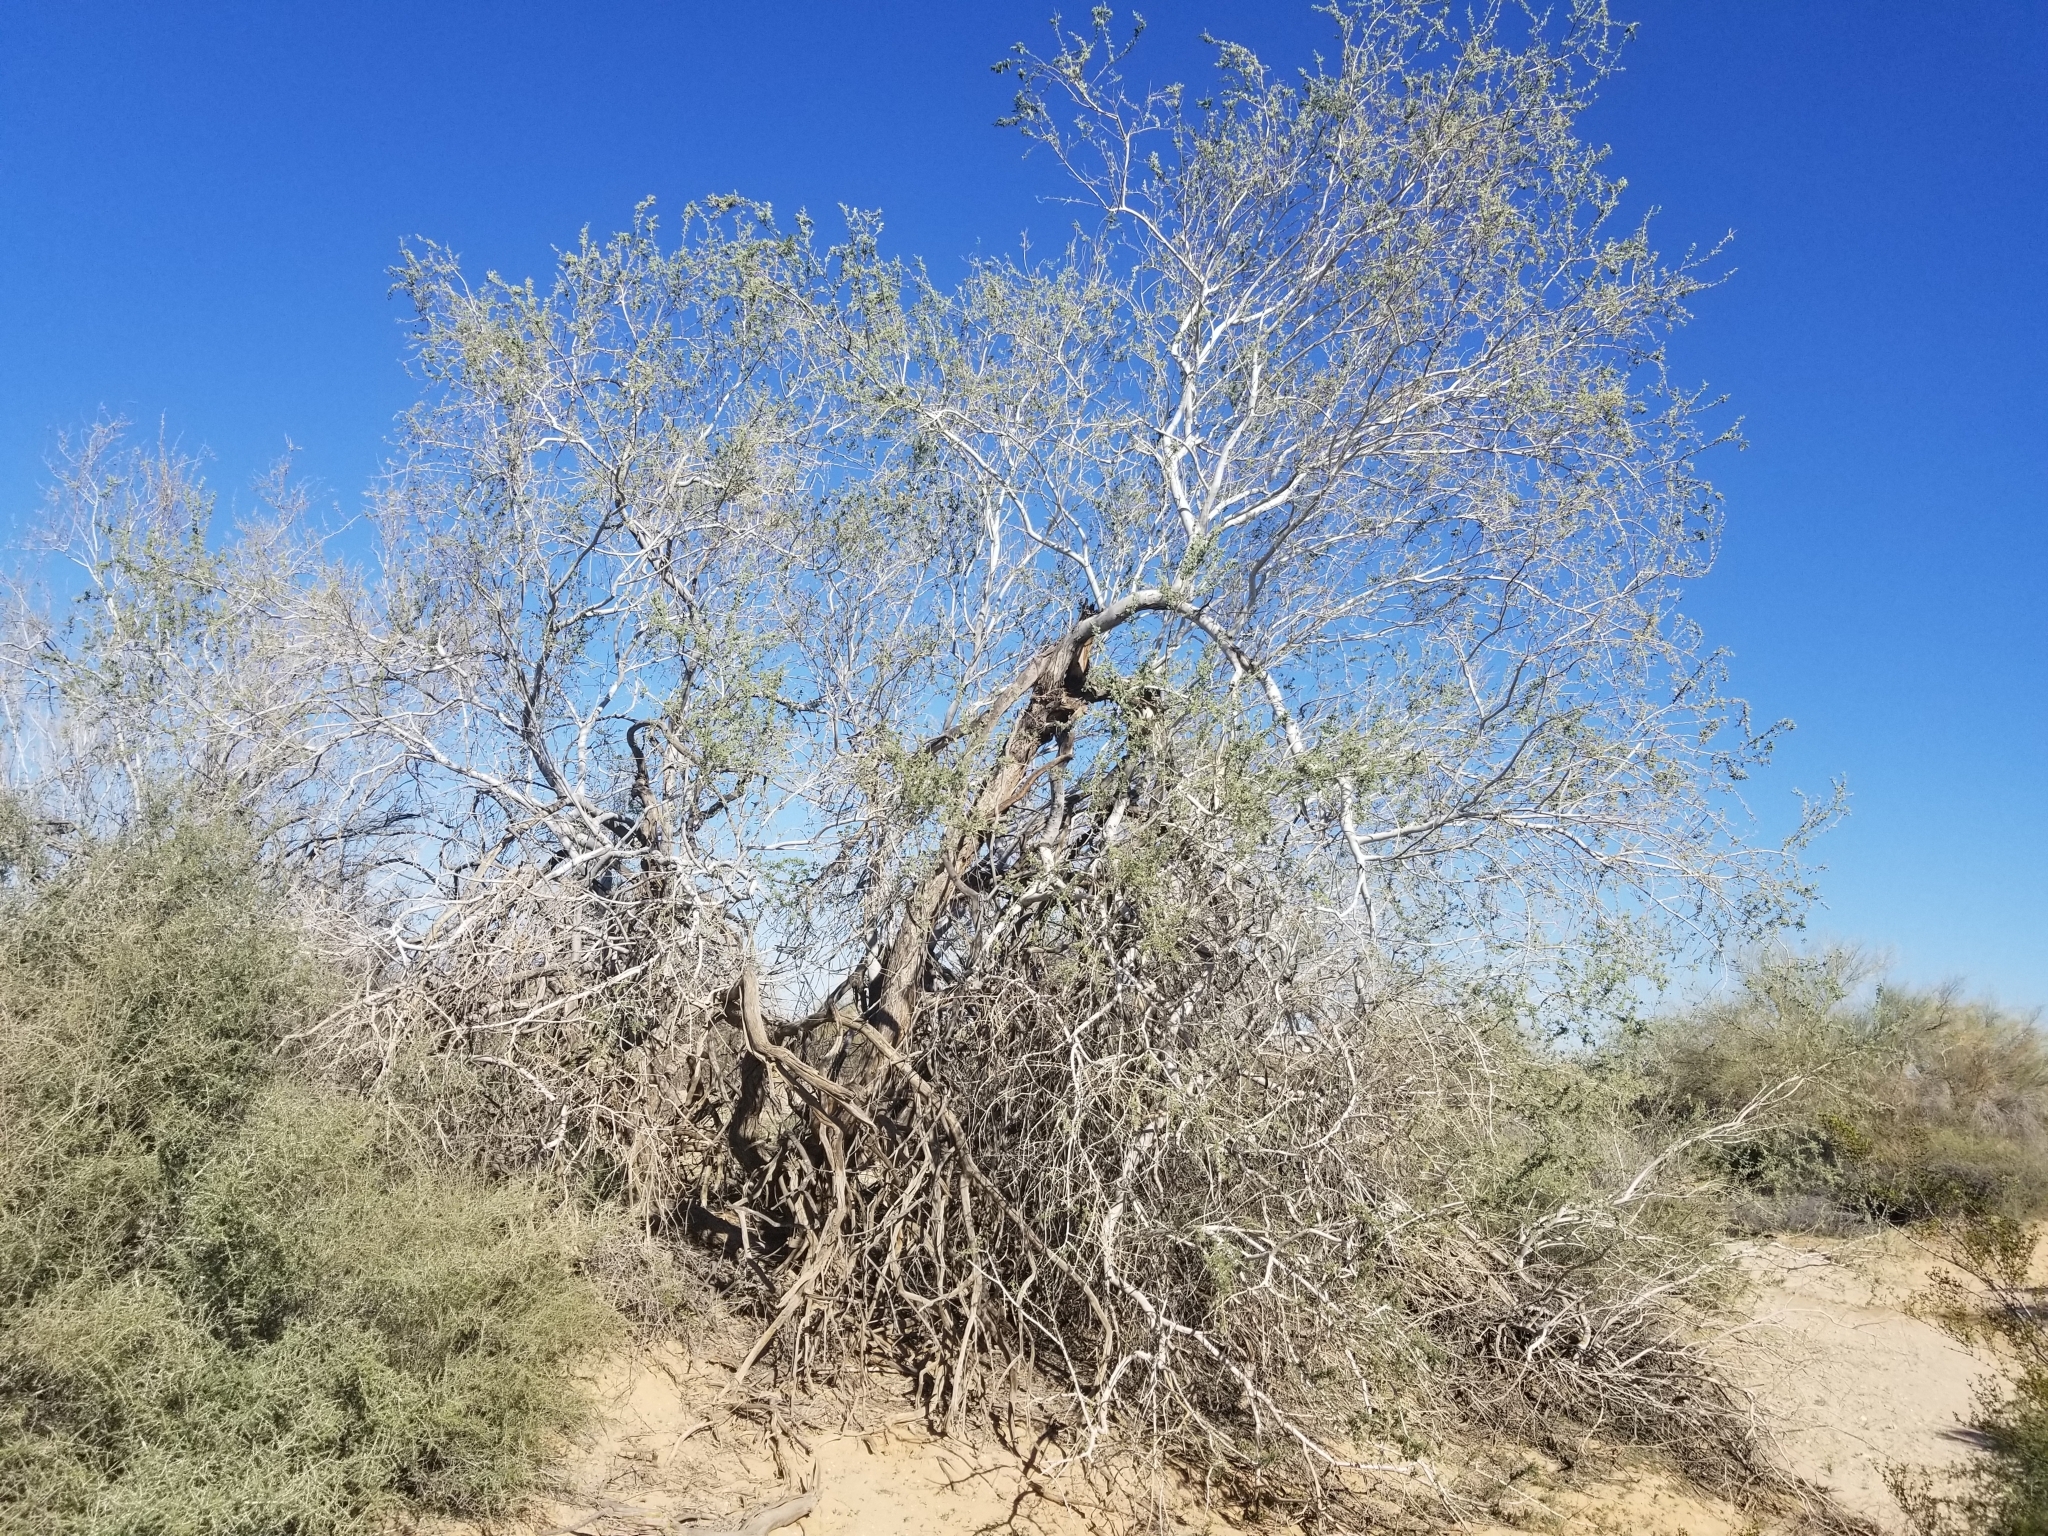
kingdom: Plantae
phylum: Tracheophyta
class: Magnoliopsida
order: Fabales
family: Fabaceae
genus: Olneya
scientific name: Olneya tesota
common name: Desert ironwood
